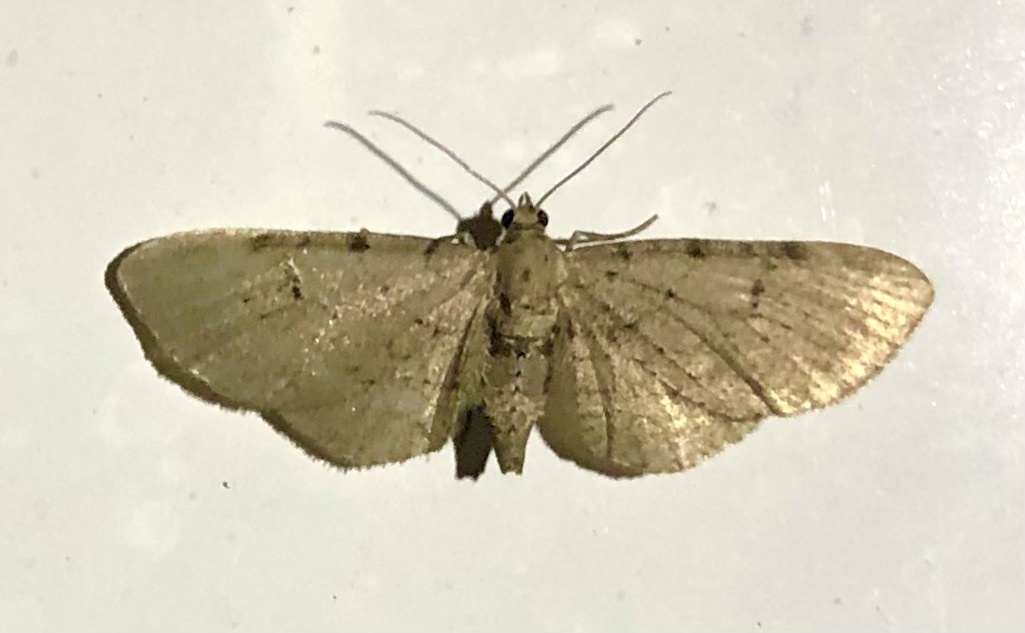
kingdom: Animalia
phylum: Arthropoda
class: Insecta
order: Lepidoptera
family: Geometridae
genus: Eupithecia
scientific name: Eupithecia absinthiata
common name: Wormwood pug
